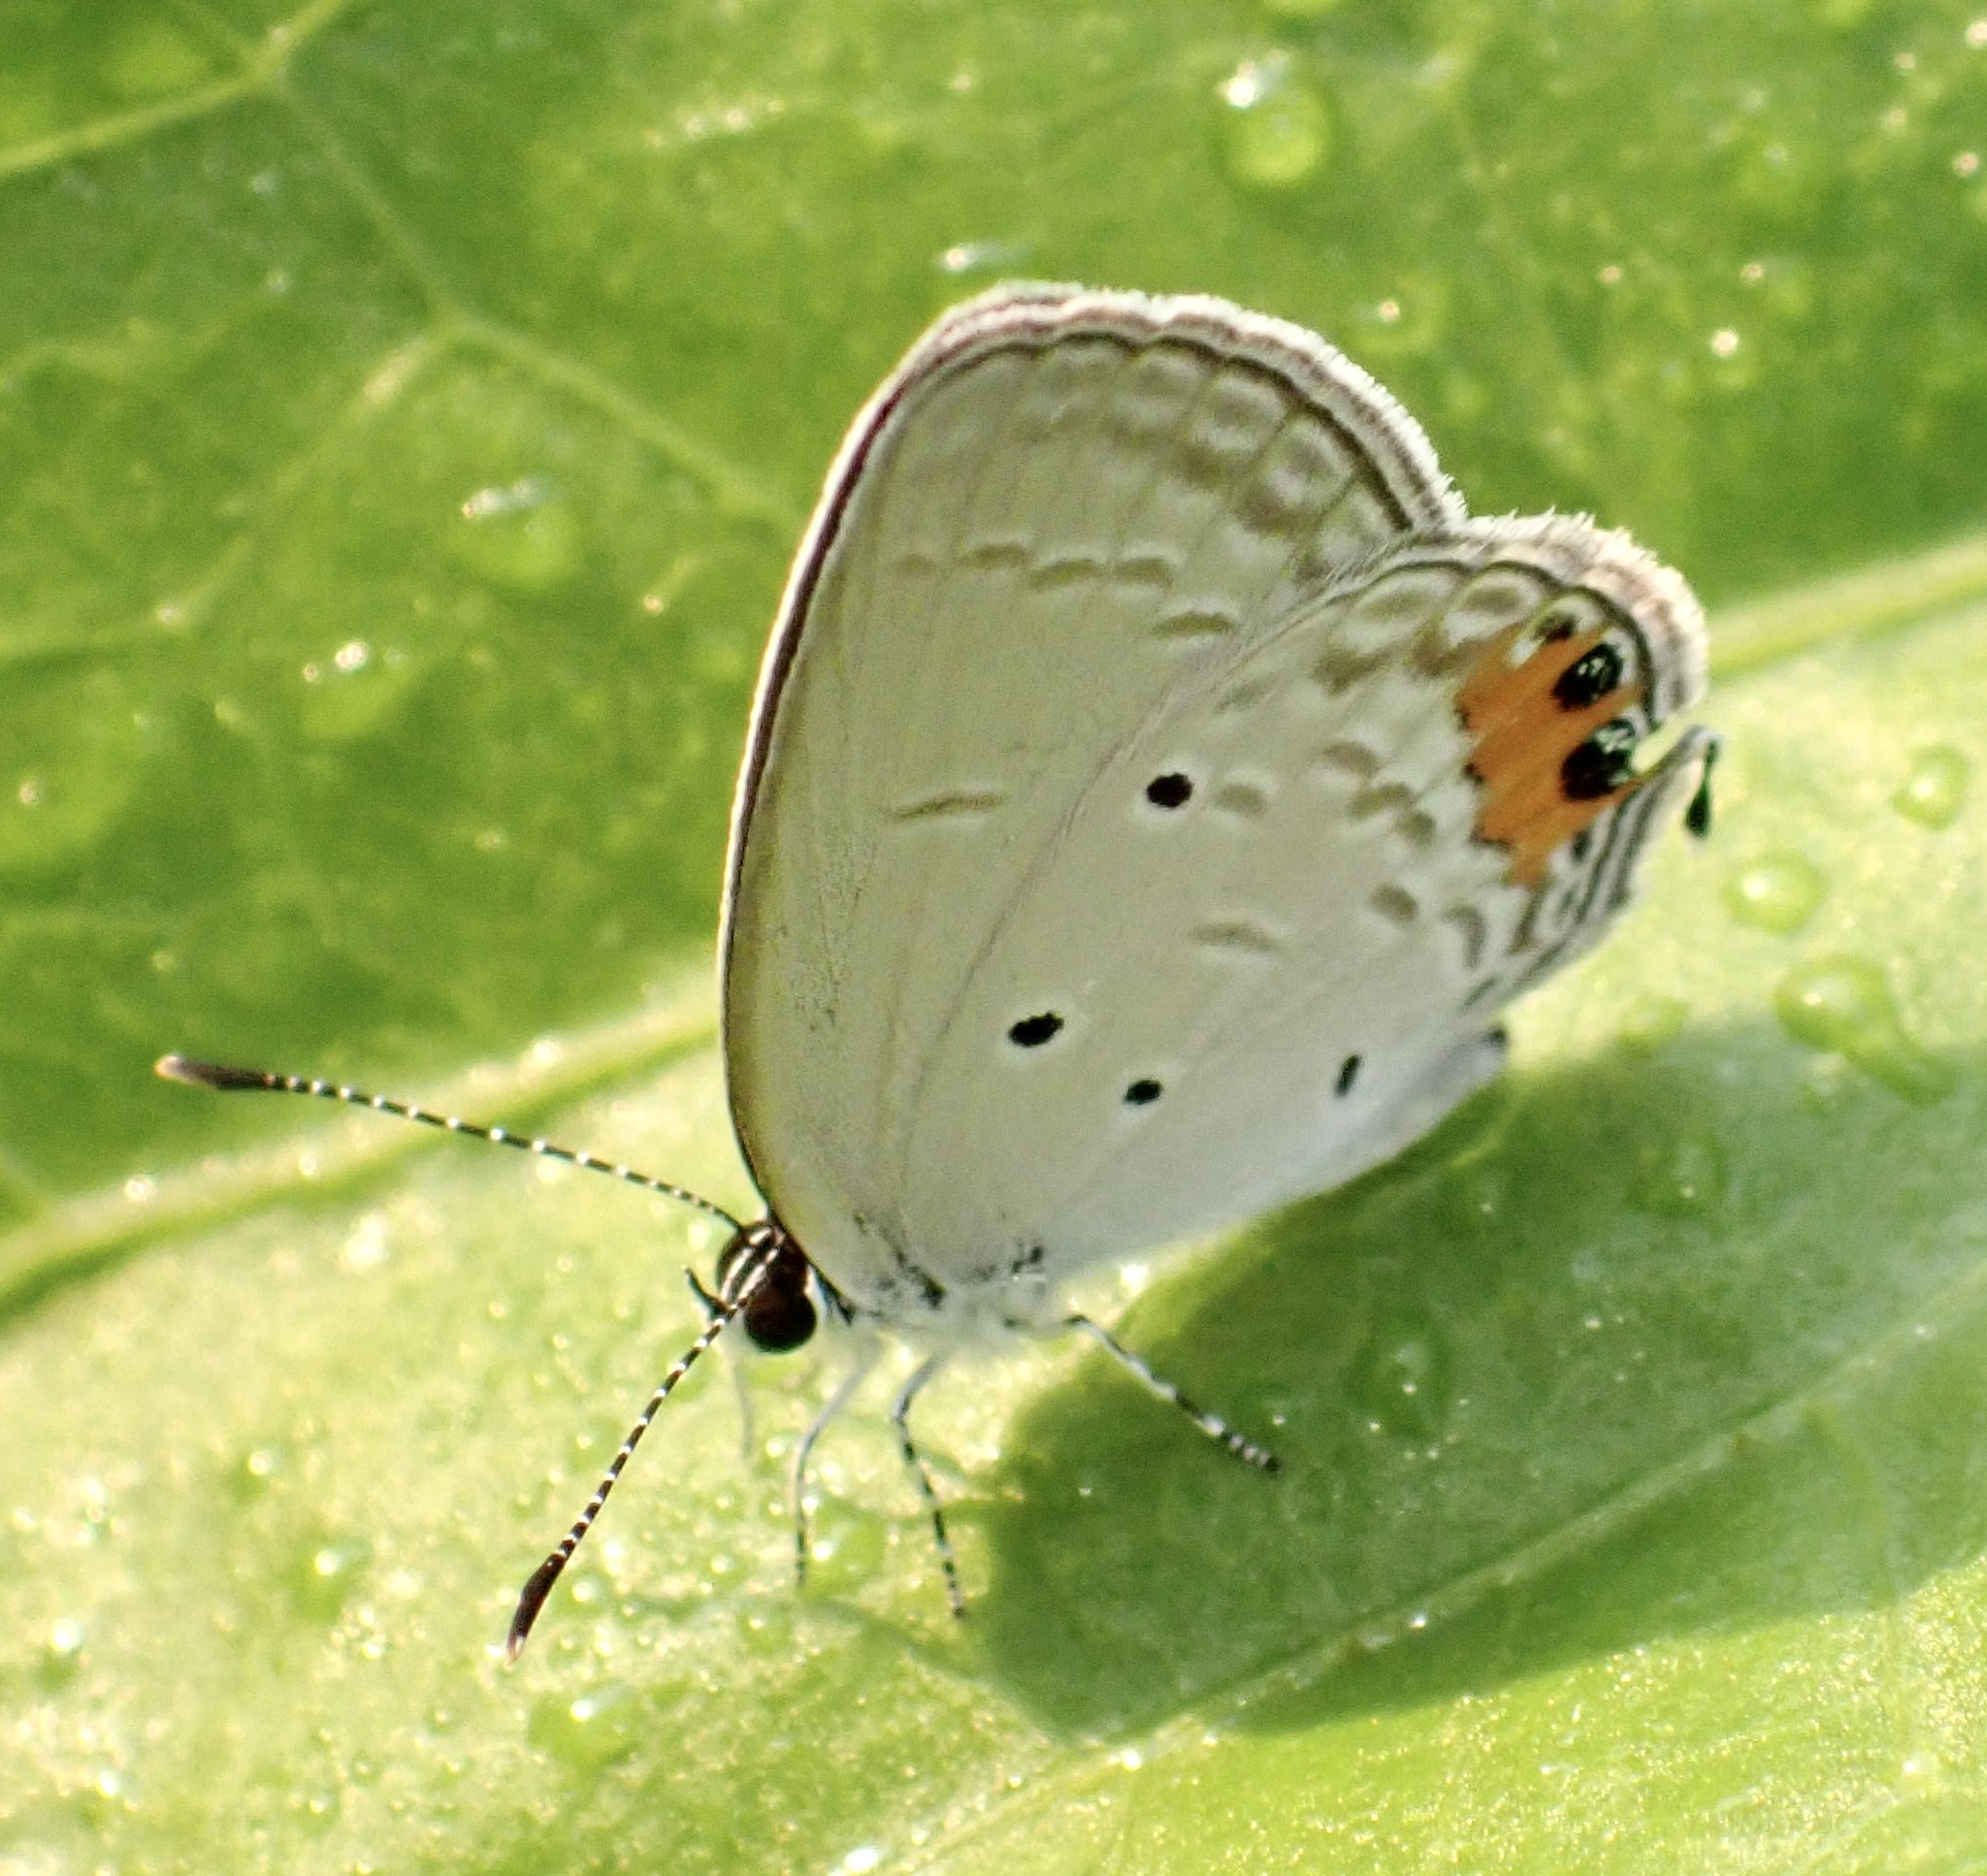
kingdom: Animalia
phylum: Arthropoda
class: Insecta
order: Lepidoptera
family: Lycaenidae
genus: Everes
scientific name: Everes lacturnus
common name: Orange-tipped pea-blue
